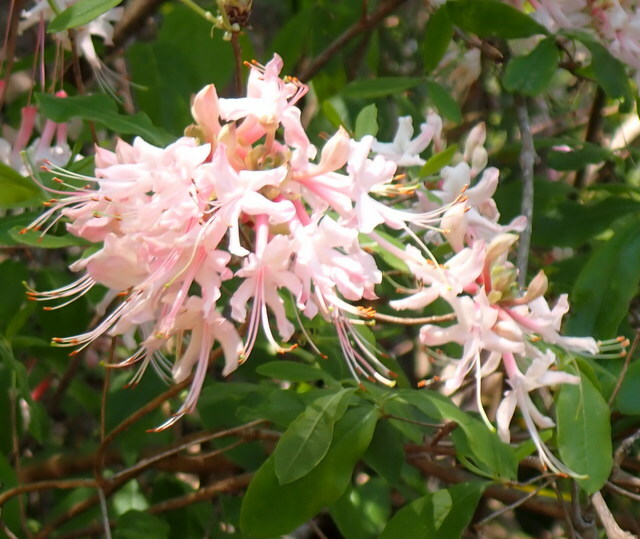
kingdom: Plantae
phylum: Tracheophyta
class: Magnoliopsida
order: Ericales
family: Ericaceae
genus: Rhododendron
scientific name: Rhododendron canescens
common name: Mountain azalea
